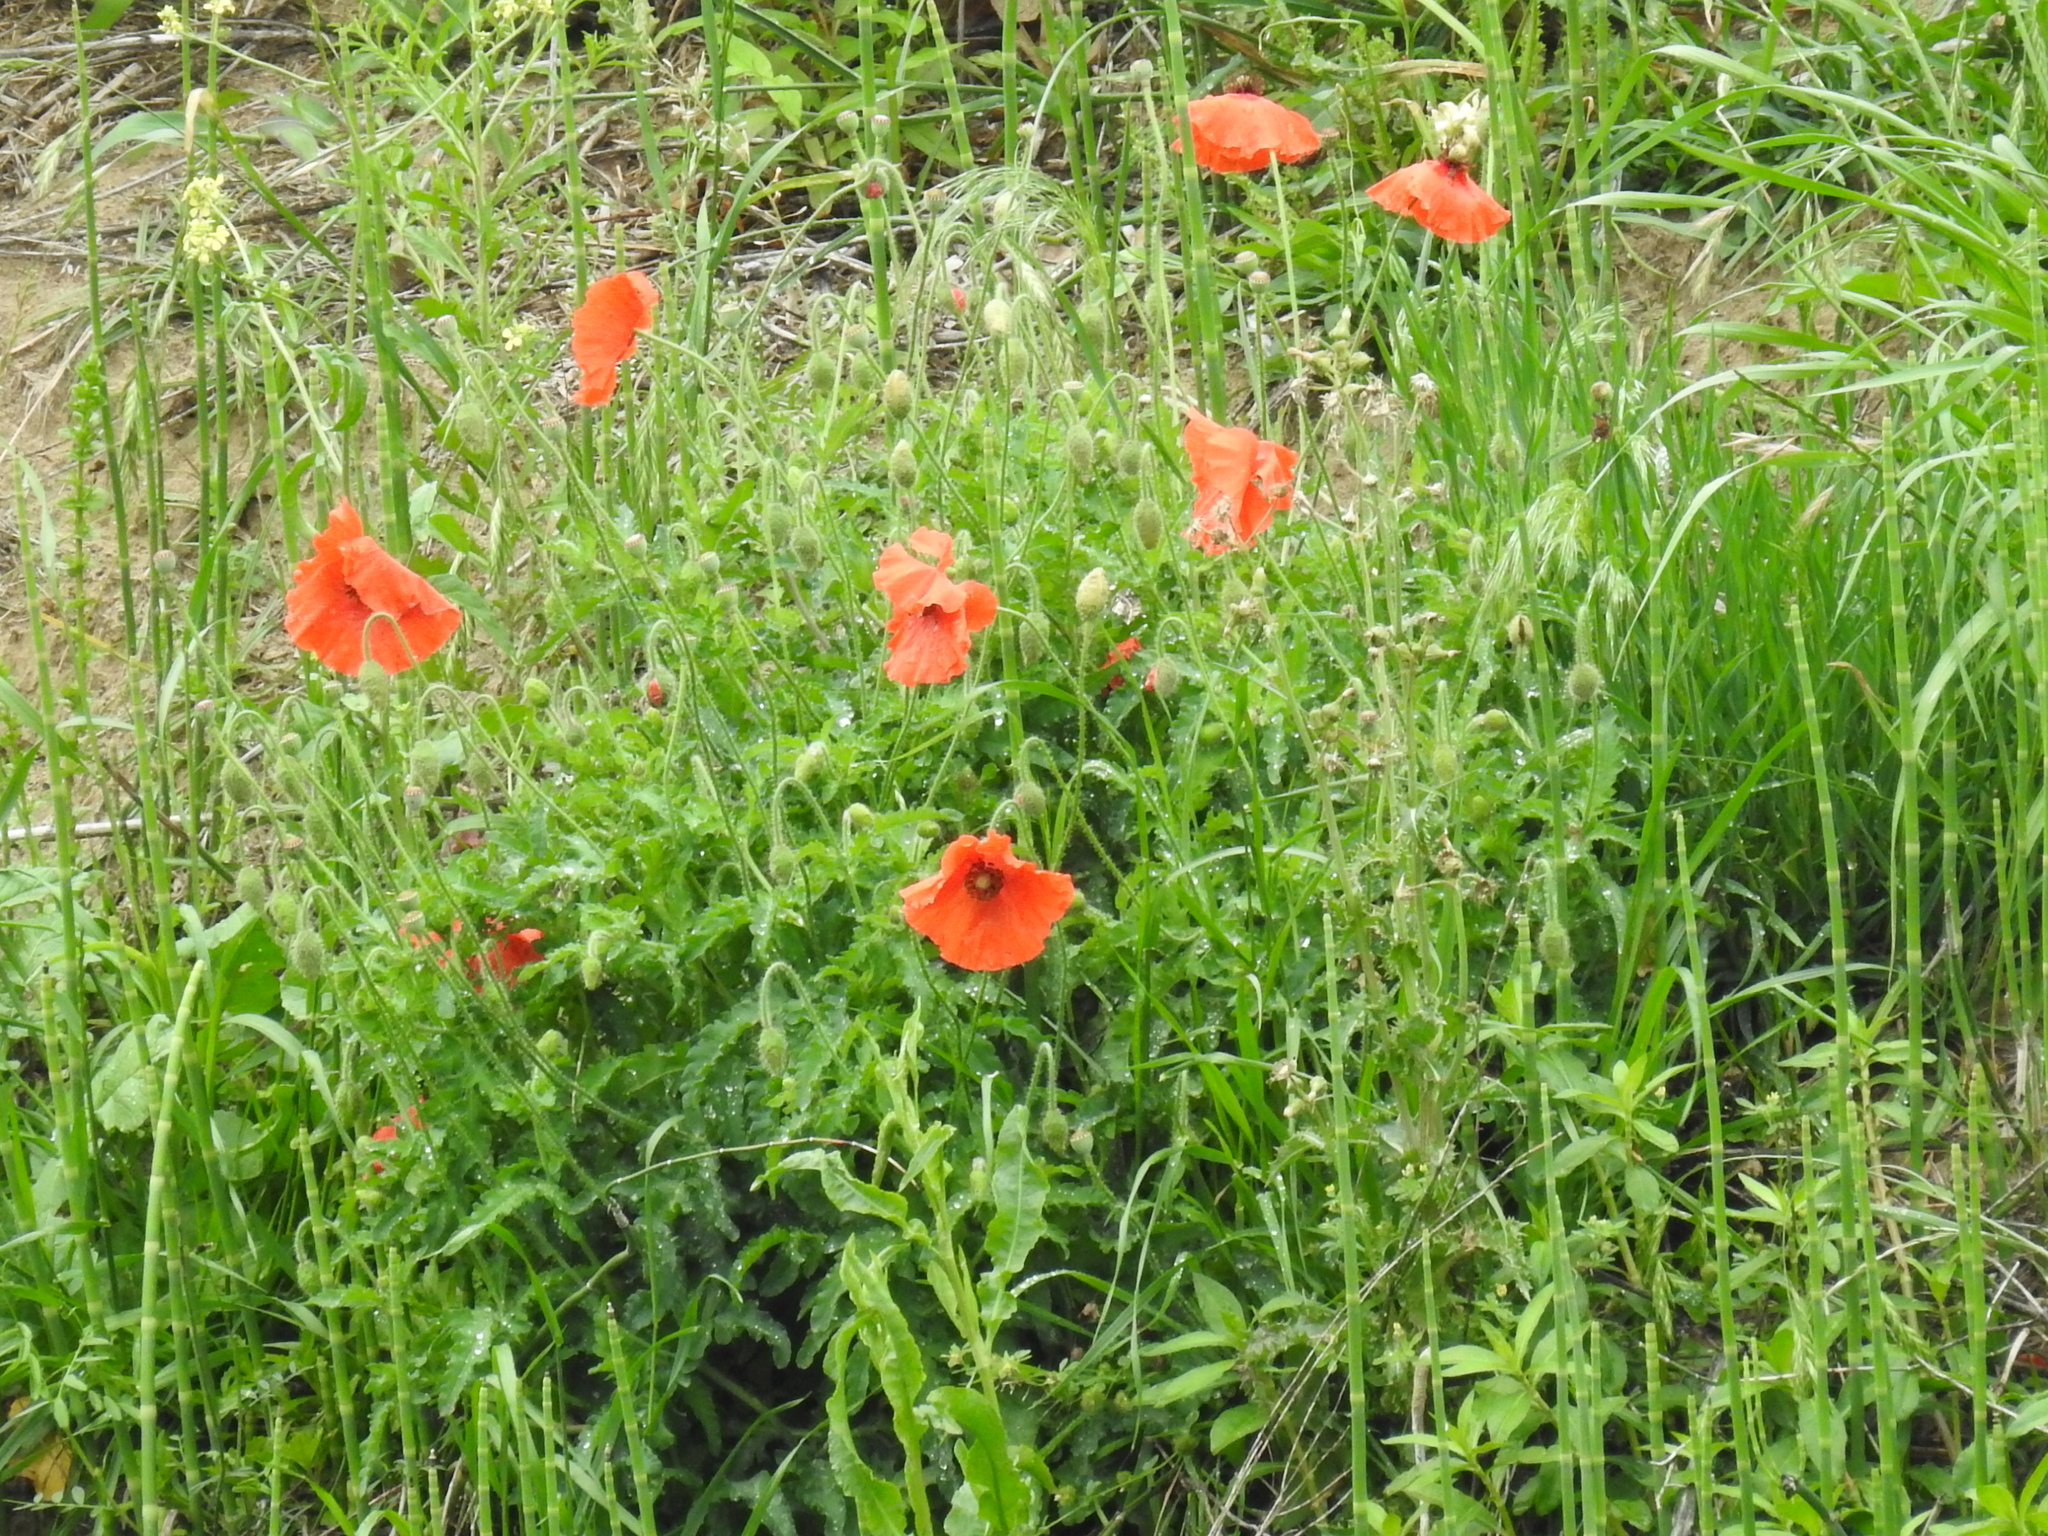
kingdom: Plantae
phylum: Tracheophyta
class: Magnoliopsida
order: Ranunculales
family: Papaveraceae
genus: Papaver
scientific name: Papaver rhoeas
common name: Corn poppy
